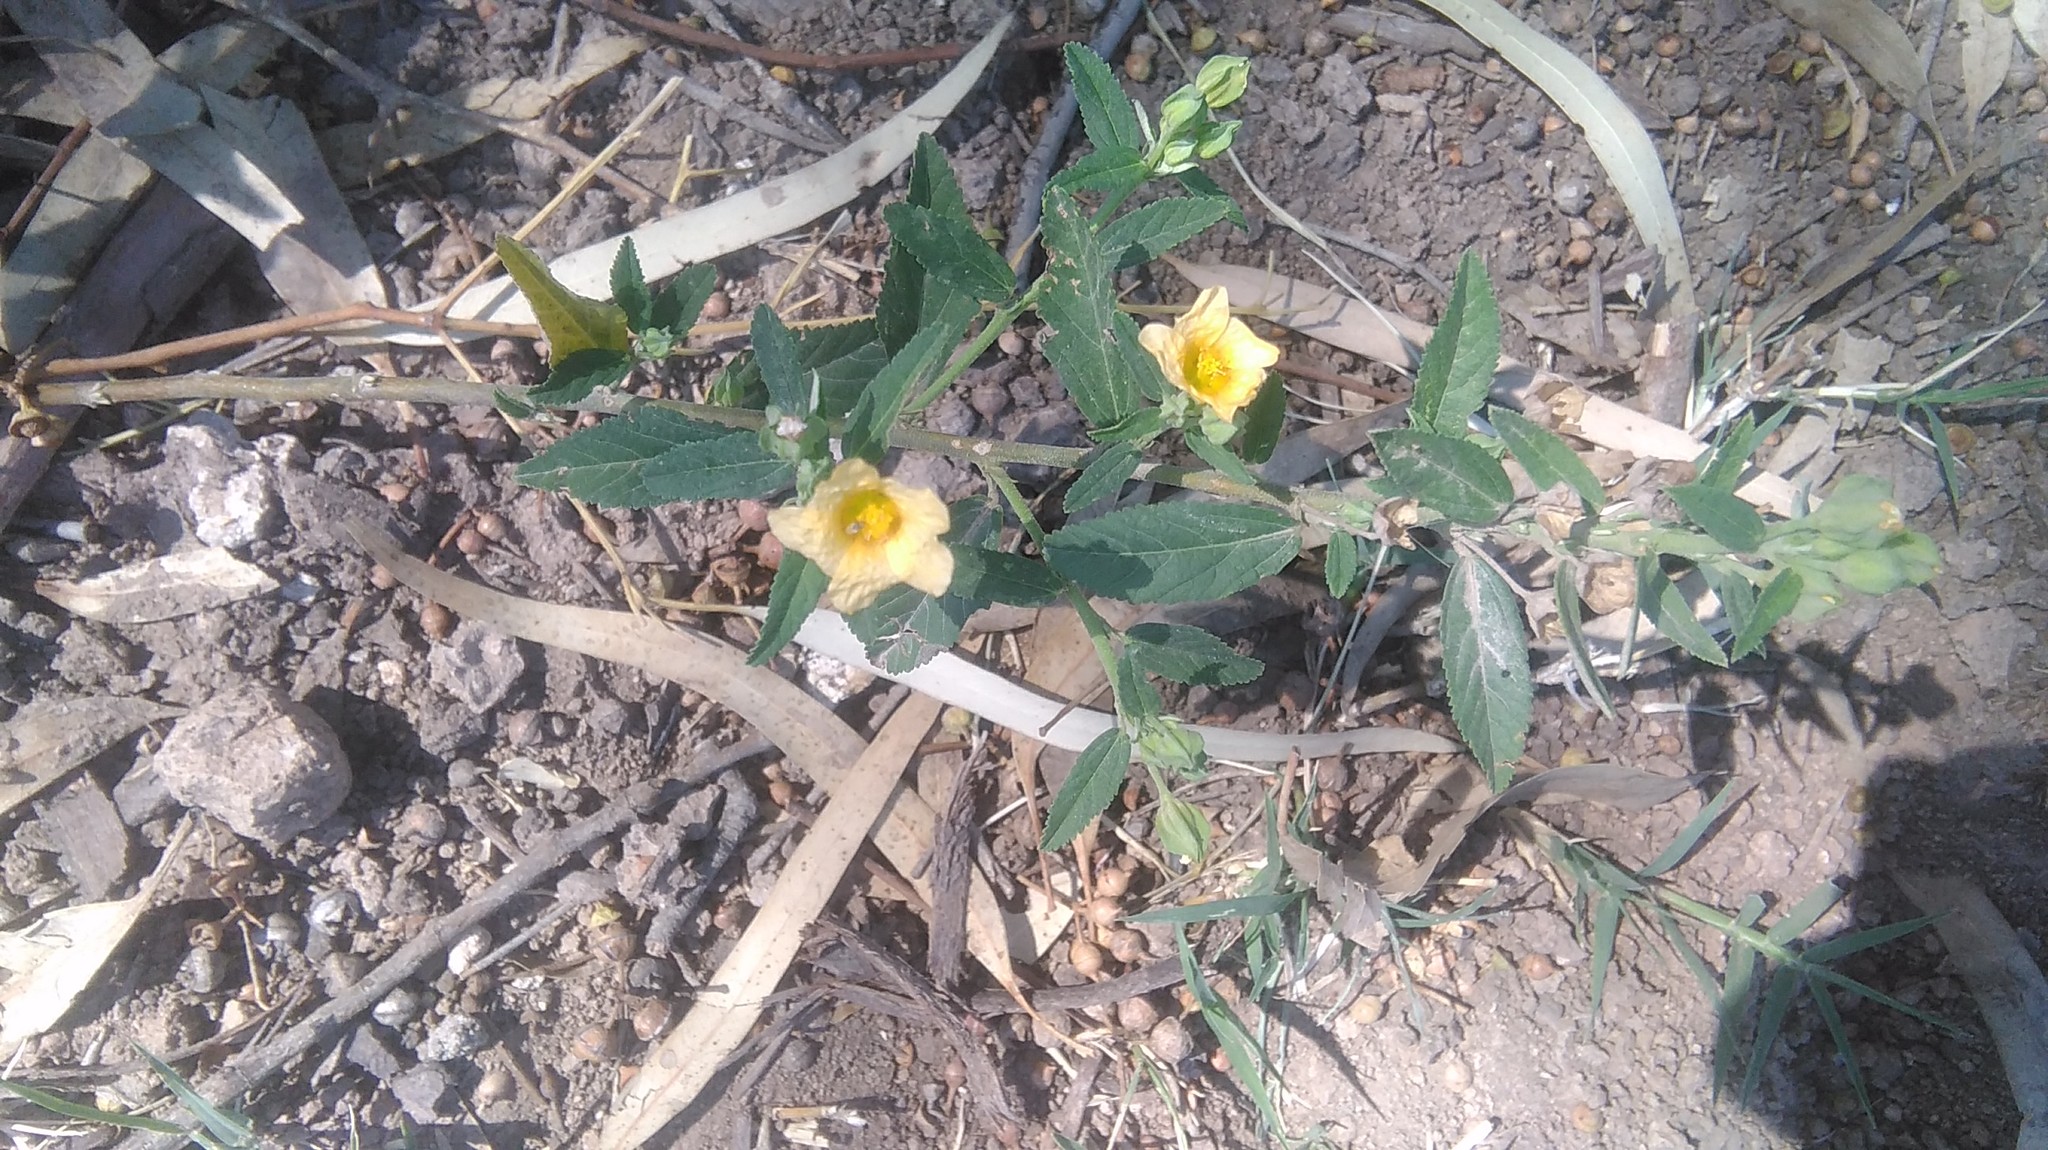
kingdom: Plantae
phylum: Tracheophyta
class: Magnoliopsida
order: Malvales
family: Malvaceae
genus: Sida
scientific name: Sida rhombifolia
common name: Queensland-hemp
